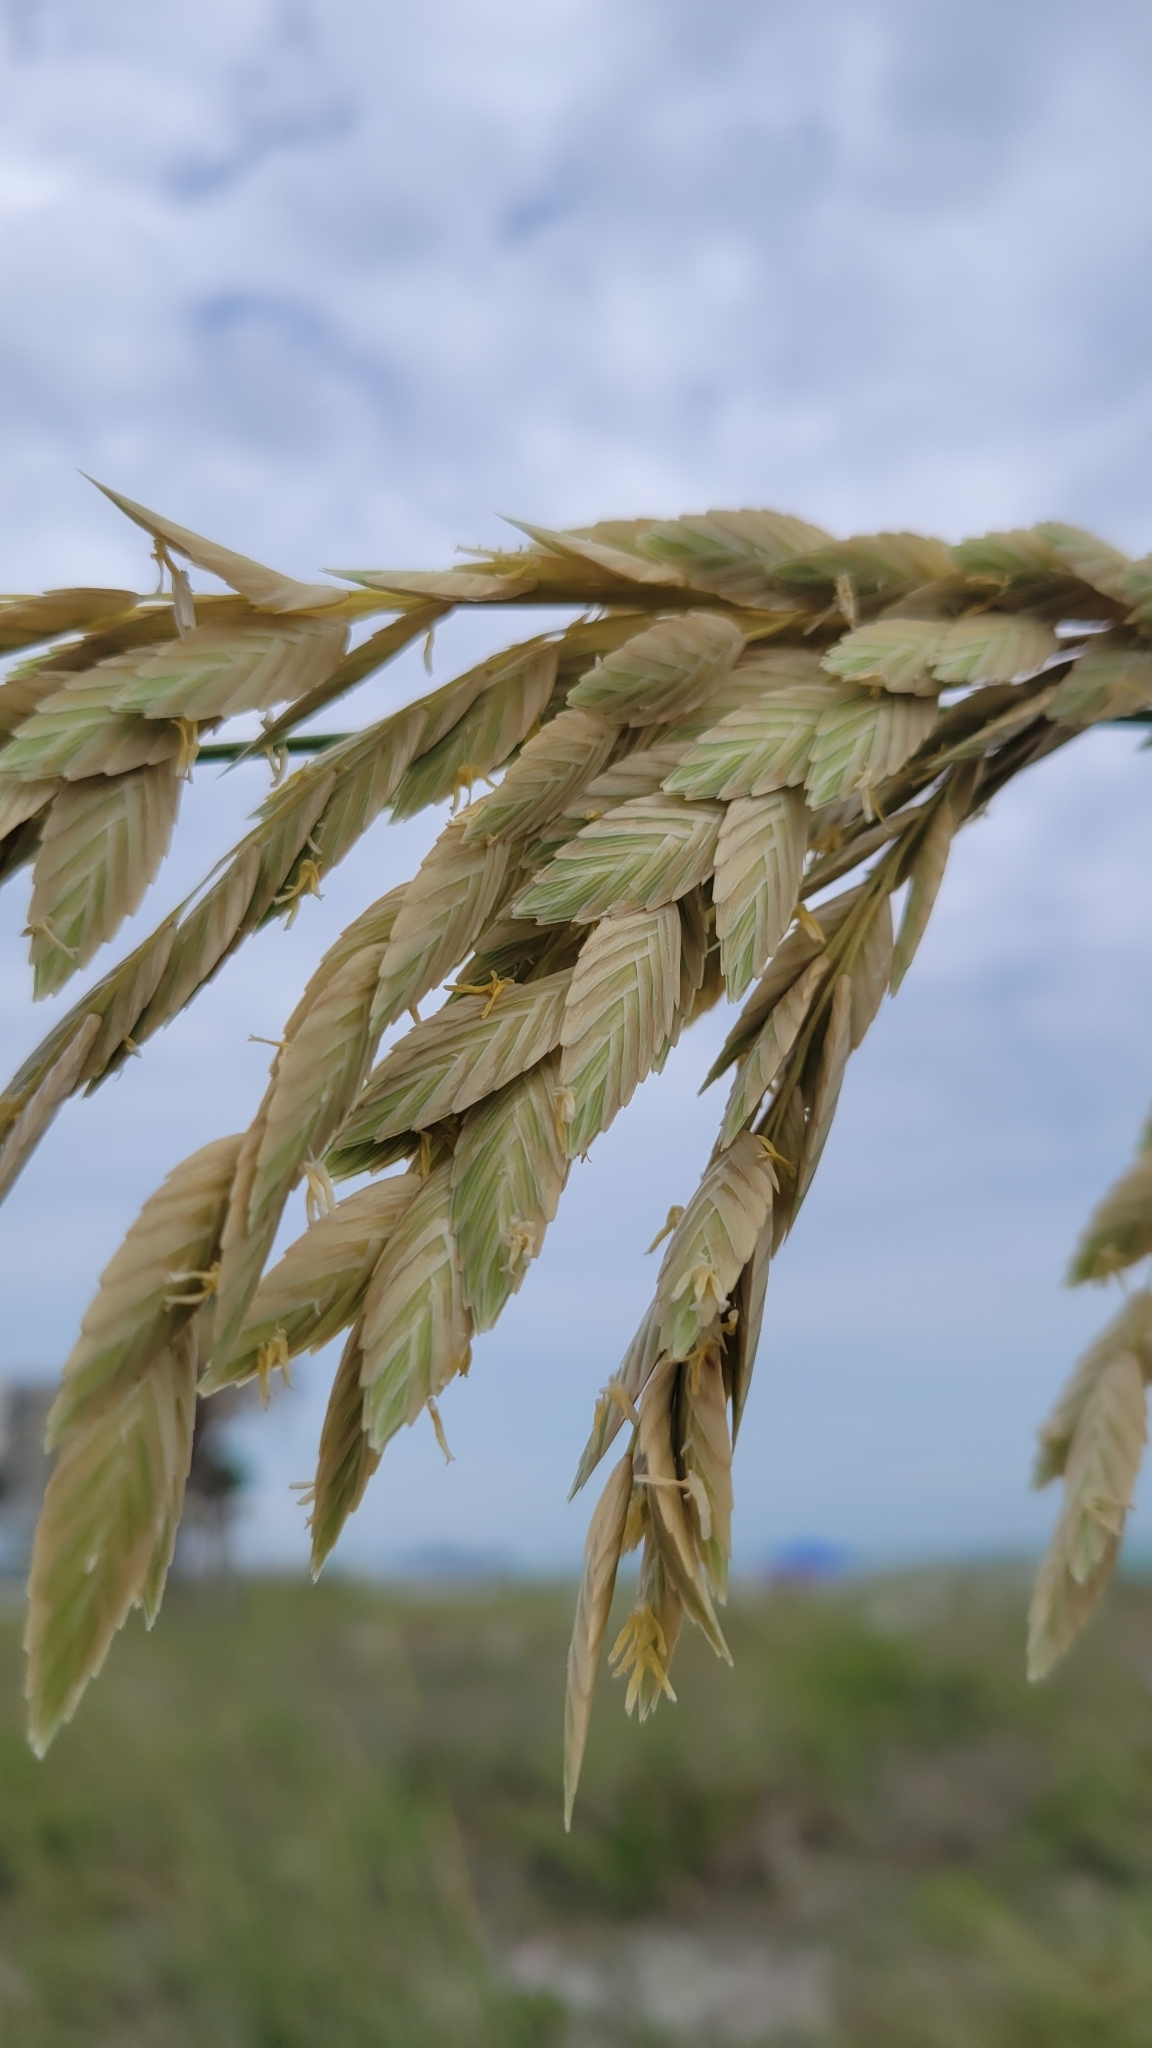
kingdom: Plantae
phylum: Tracheophyta
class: Liliopsida
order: Poales
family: Poaceae
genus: Uniola
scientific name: Uniola paniculata
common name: Seaside-oats
